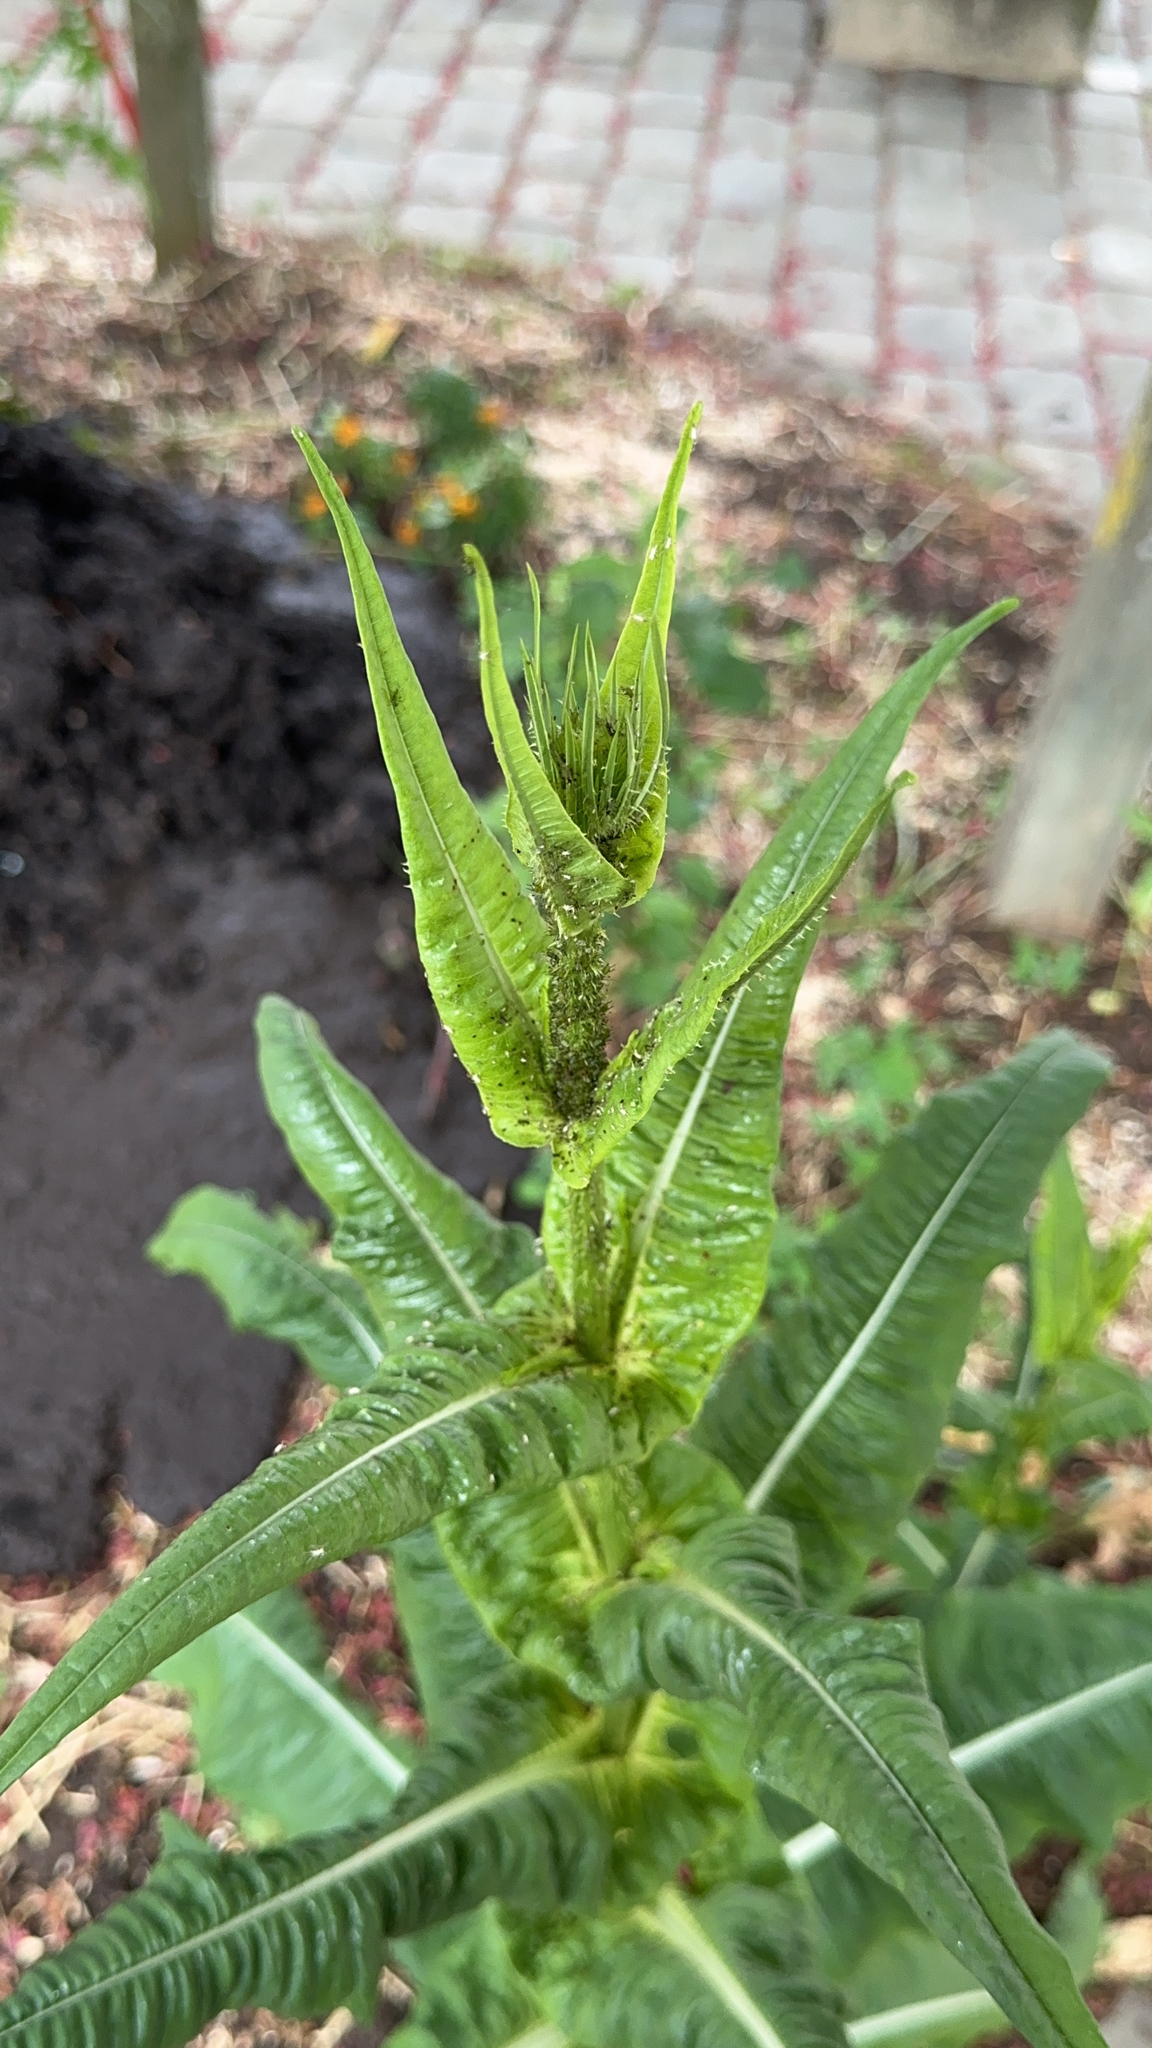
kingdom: Plantae
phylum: Tracheophyta
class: Magnoliopsida
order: Dipsacales
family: Caprifoliaceae
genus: Dipsacus
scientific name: Dipsacus fullonum
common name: Teasel
